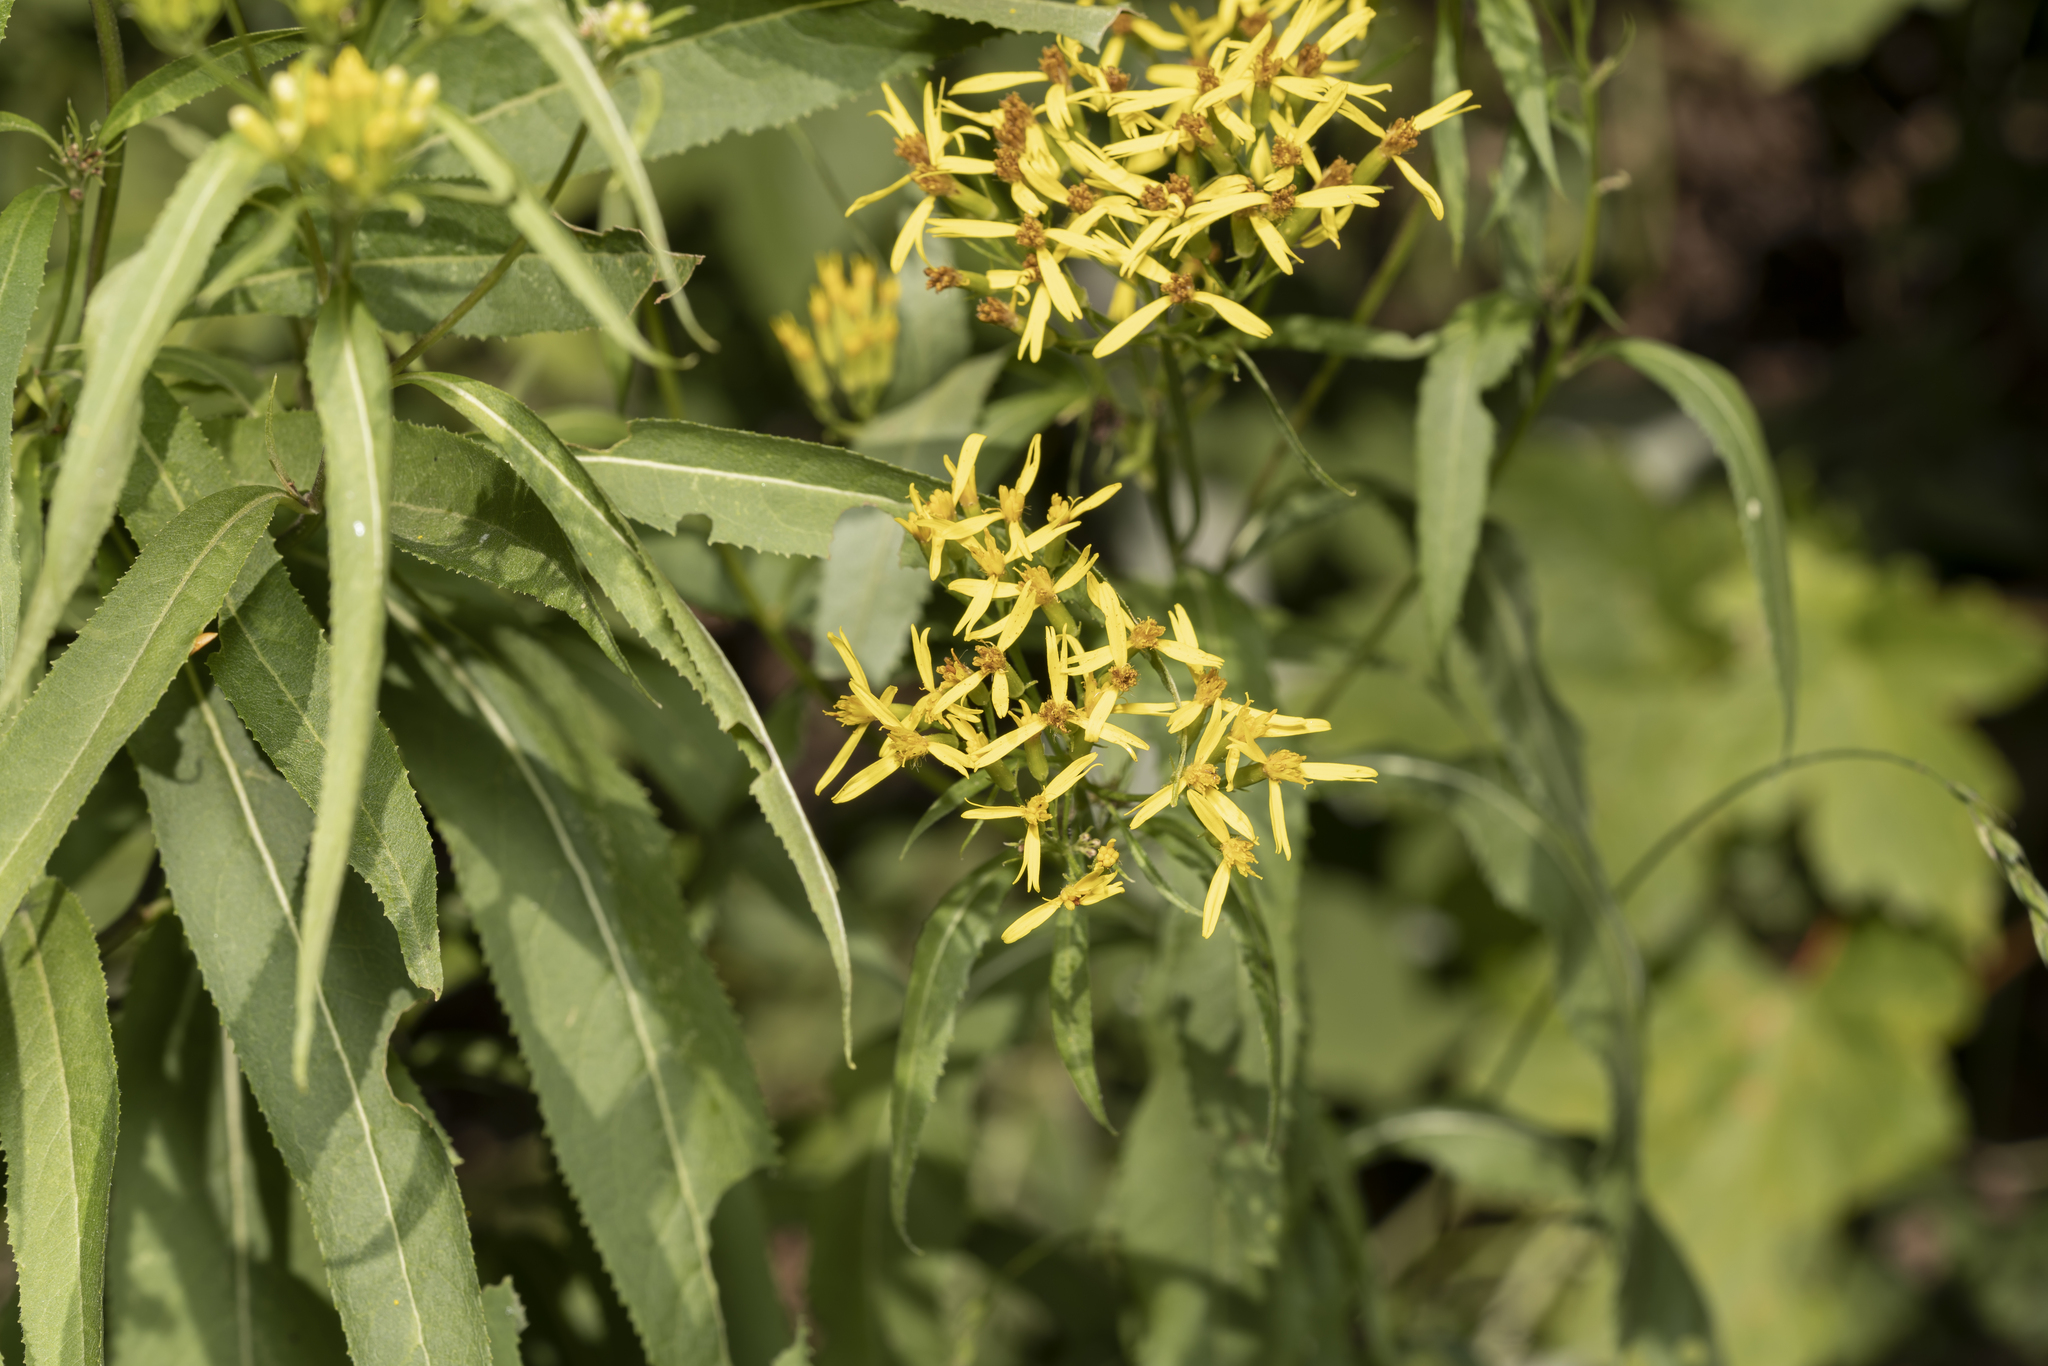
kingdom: Plantae
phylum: Tracheophyta
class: Magnoliopsida
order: Asterales
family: Asteraceae
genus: Senecio
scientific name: Senecio ovatus
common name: Wood ragwort
